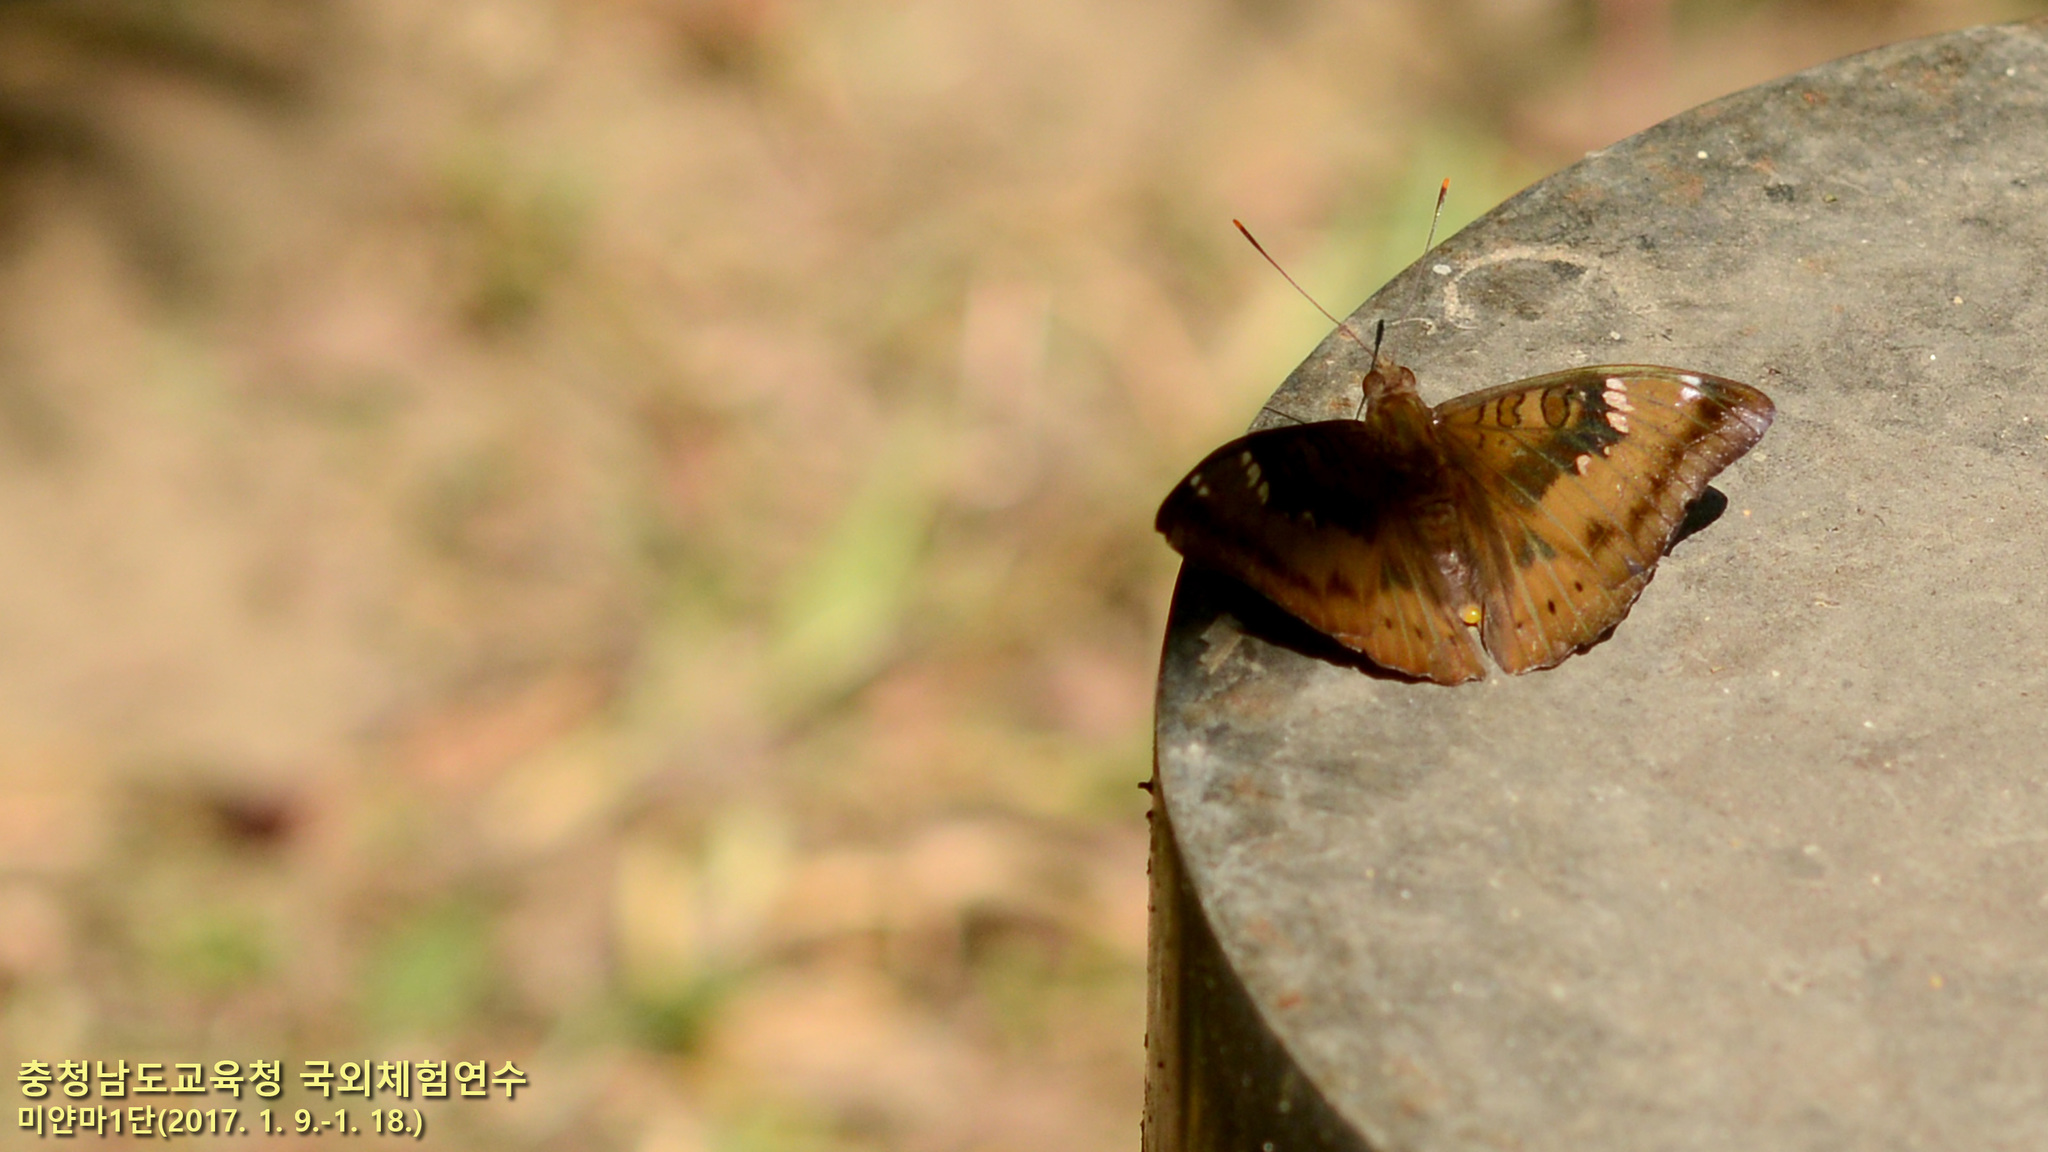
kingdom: Animalia
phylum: Arthropoda
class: Insecta
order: Lepidoptera
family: Nymphalidae
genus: Euthalia
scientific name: Euthalia aconthea
